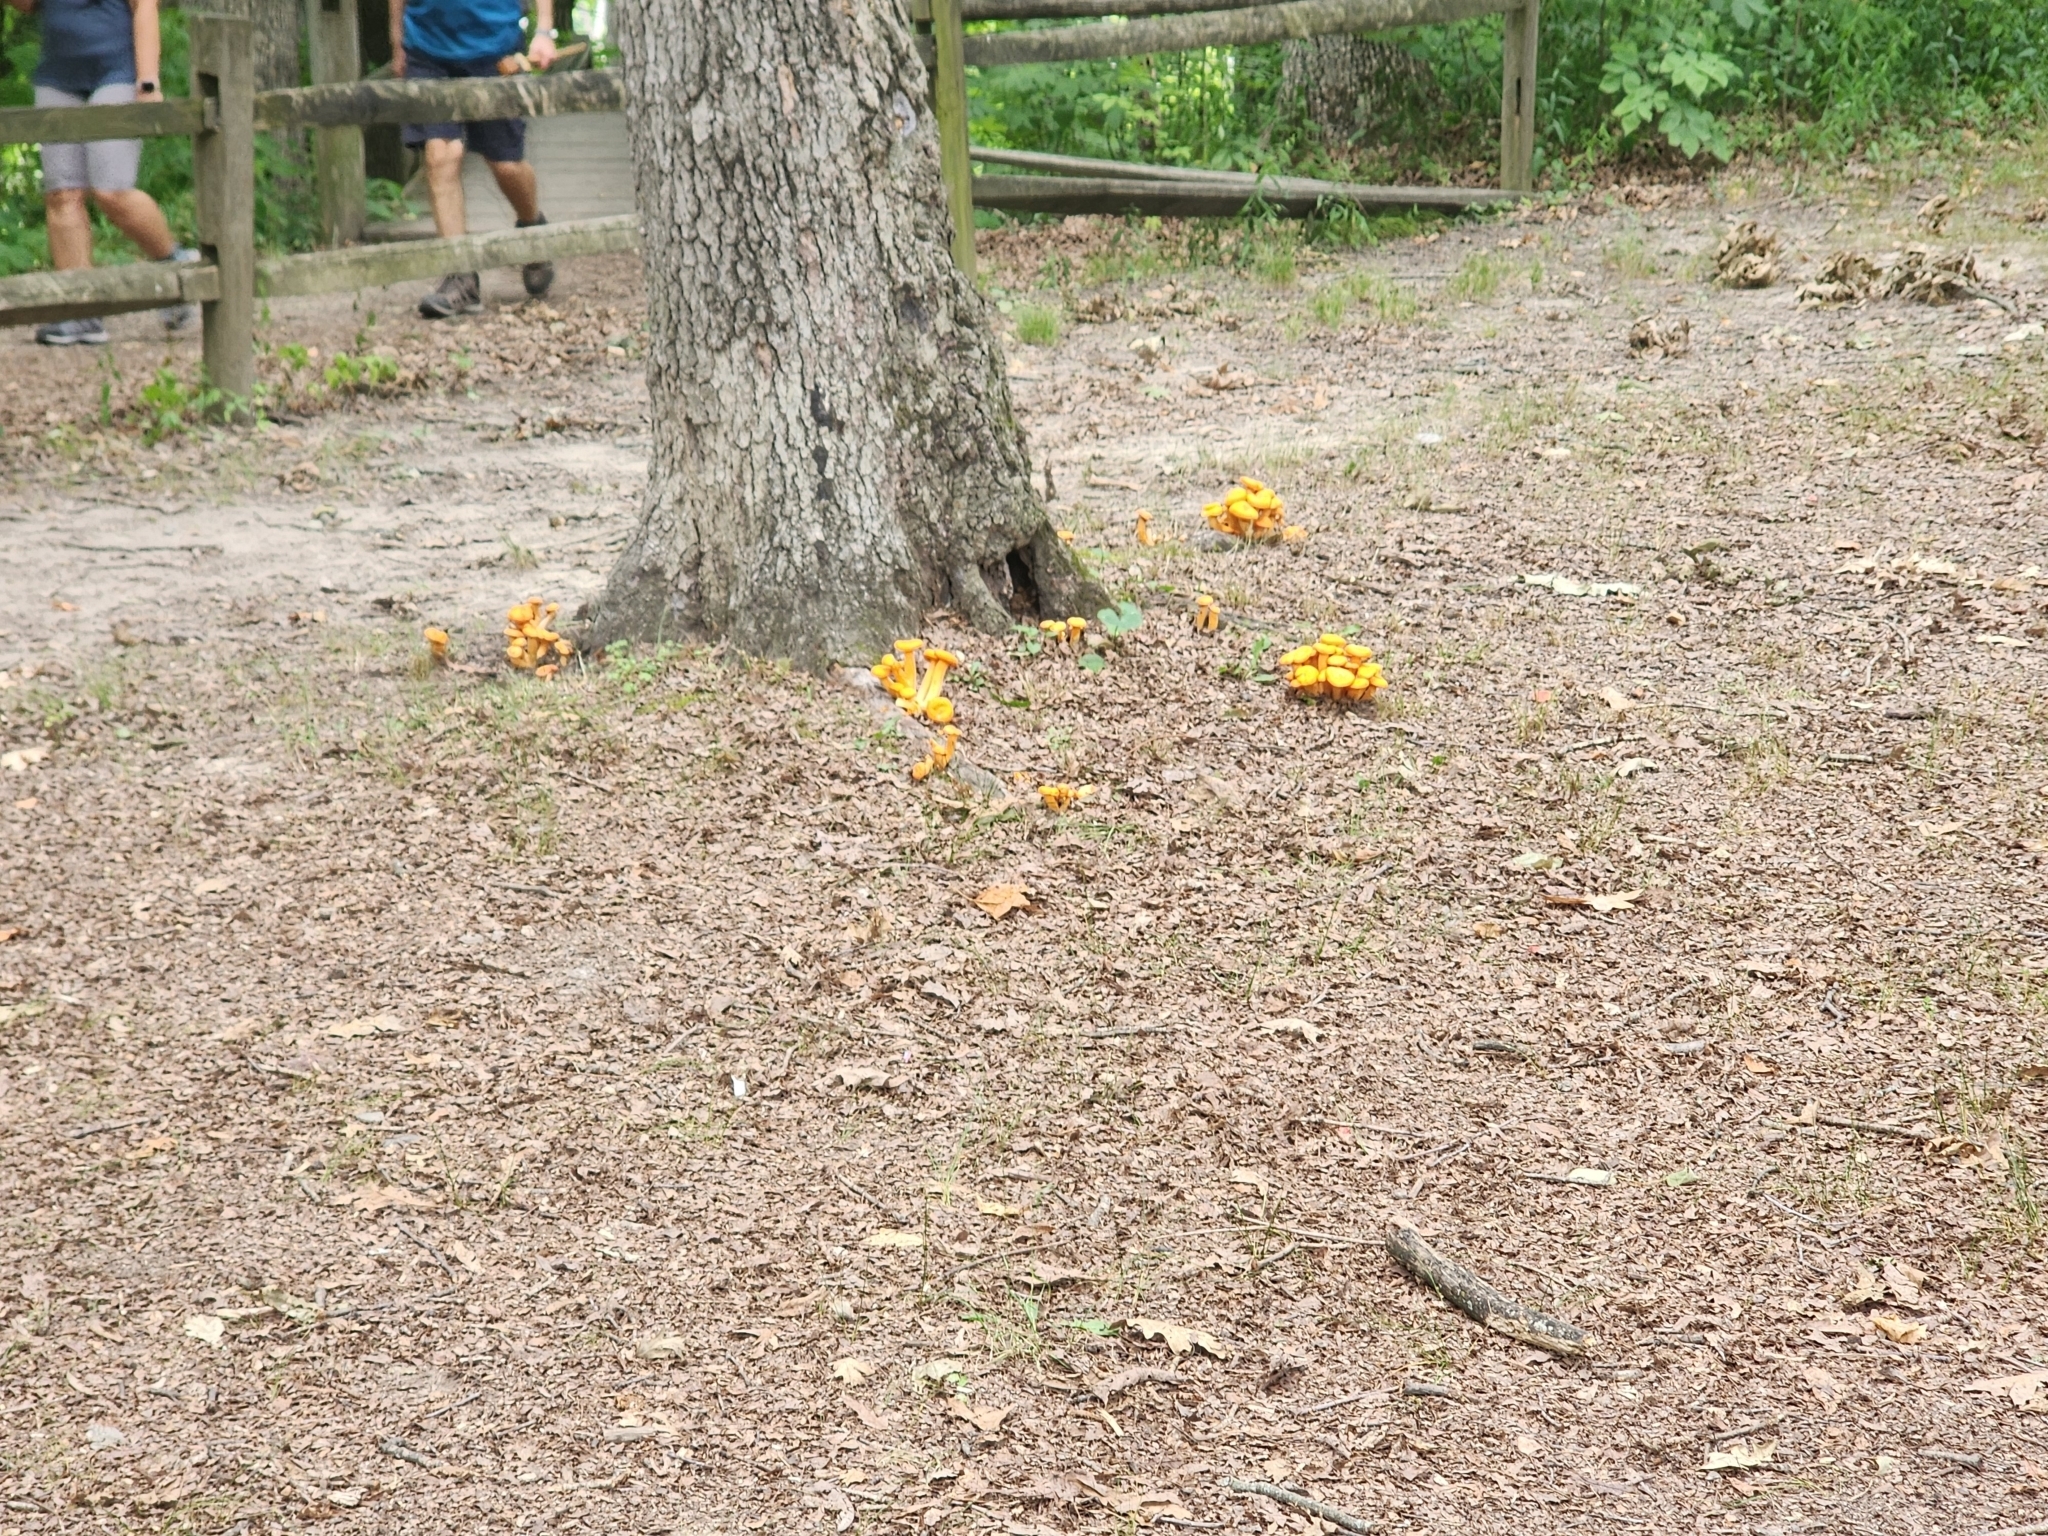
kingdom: Fungi
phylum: Basidiomycota
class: Agaricomycetes
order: Agaricales
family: Omphalotaceae
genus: Omphalotus
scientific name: Omphalotus illudens
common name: Jack o lantern
